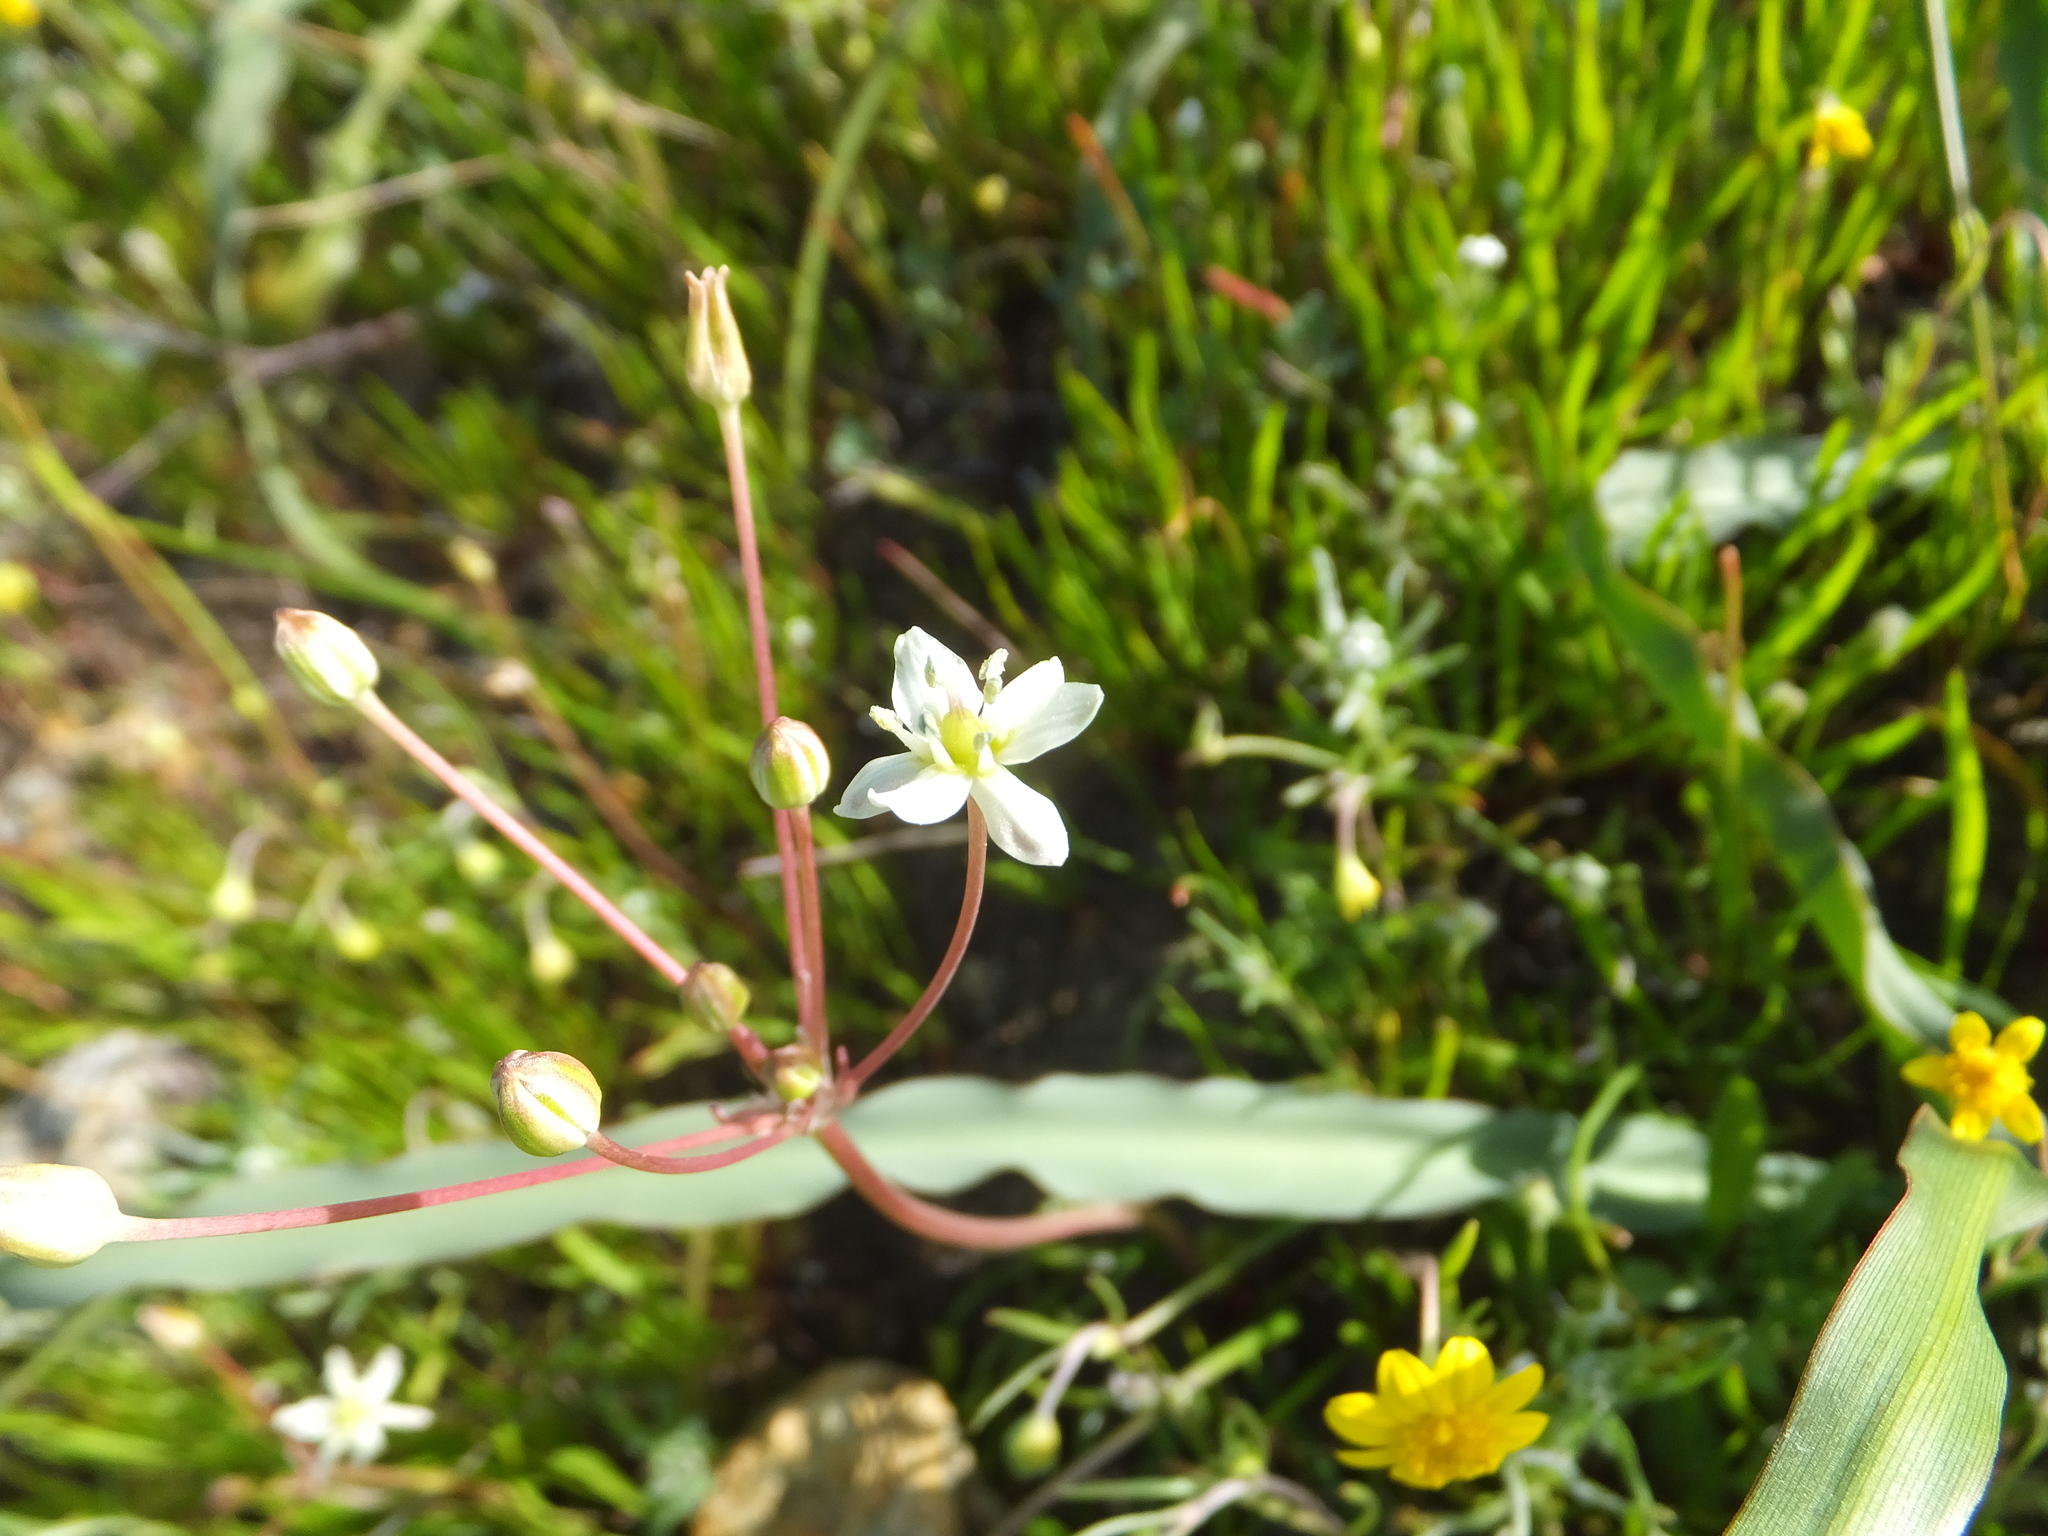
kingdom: Plantae
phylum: Tracheophyta
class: Liliopsida
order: Asparagales
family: Asparagaceae
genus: Muilla
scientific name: Muilla maritima
